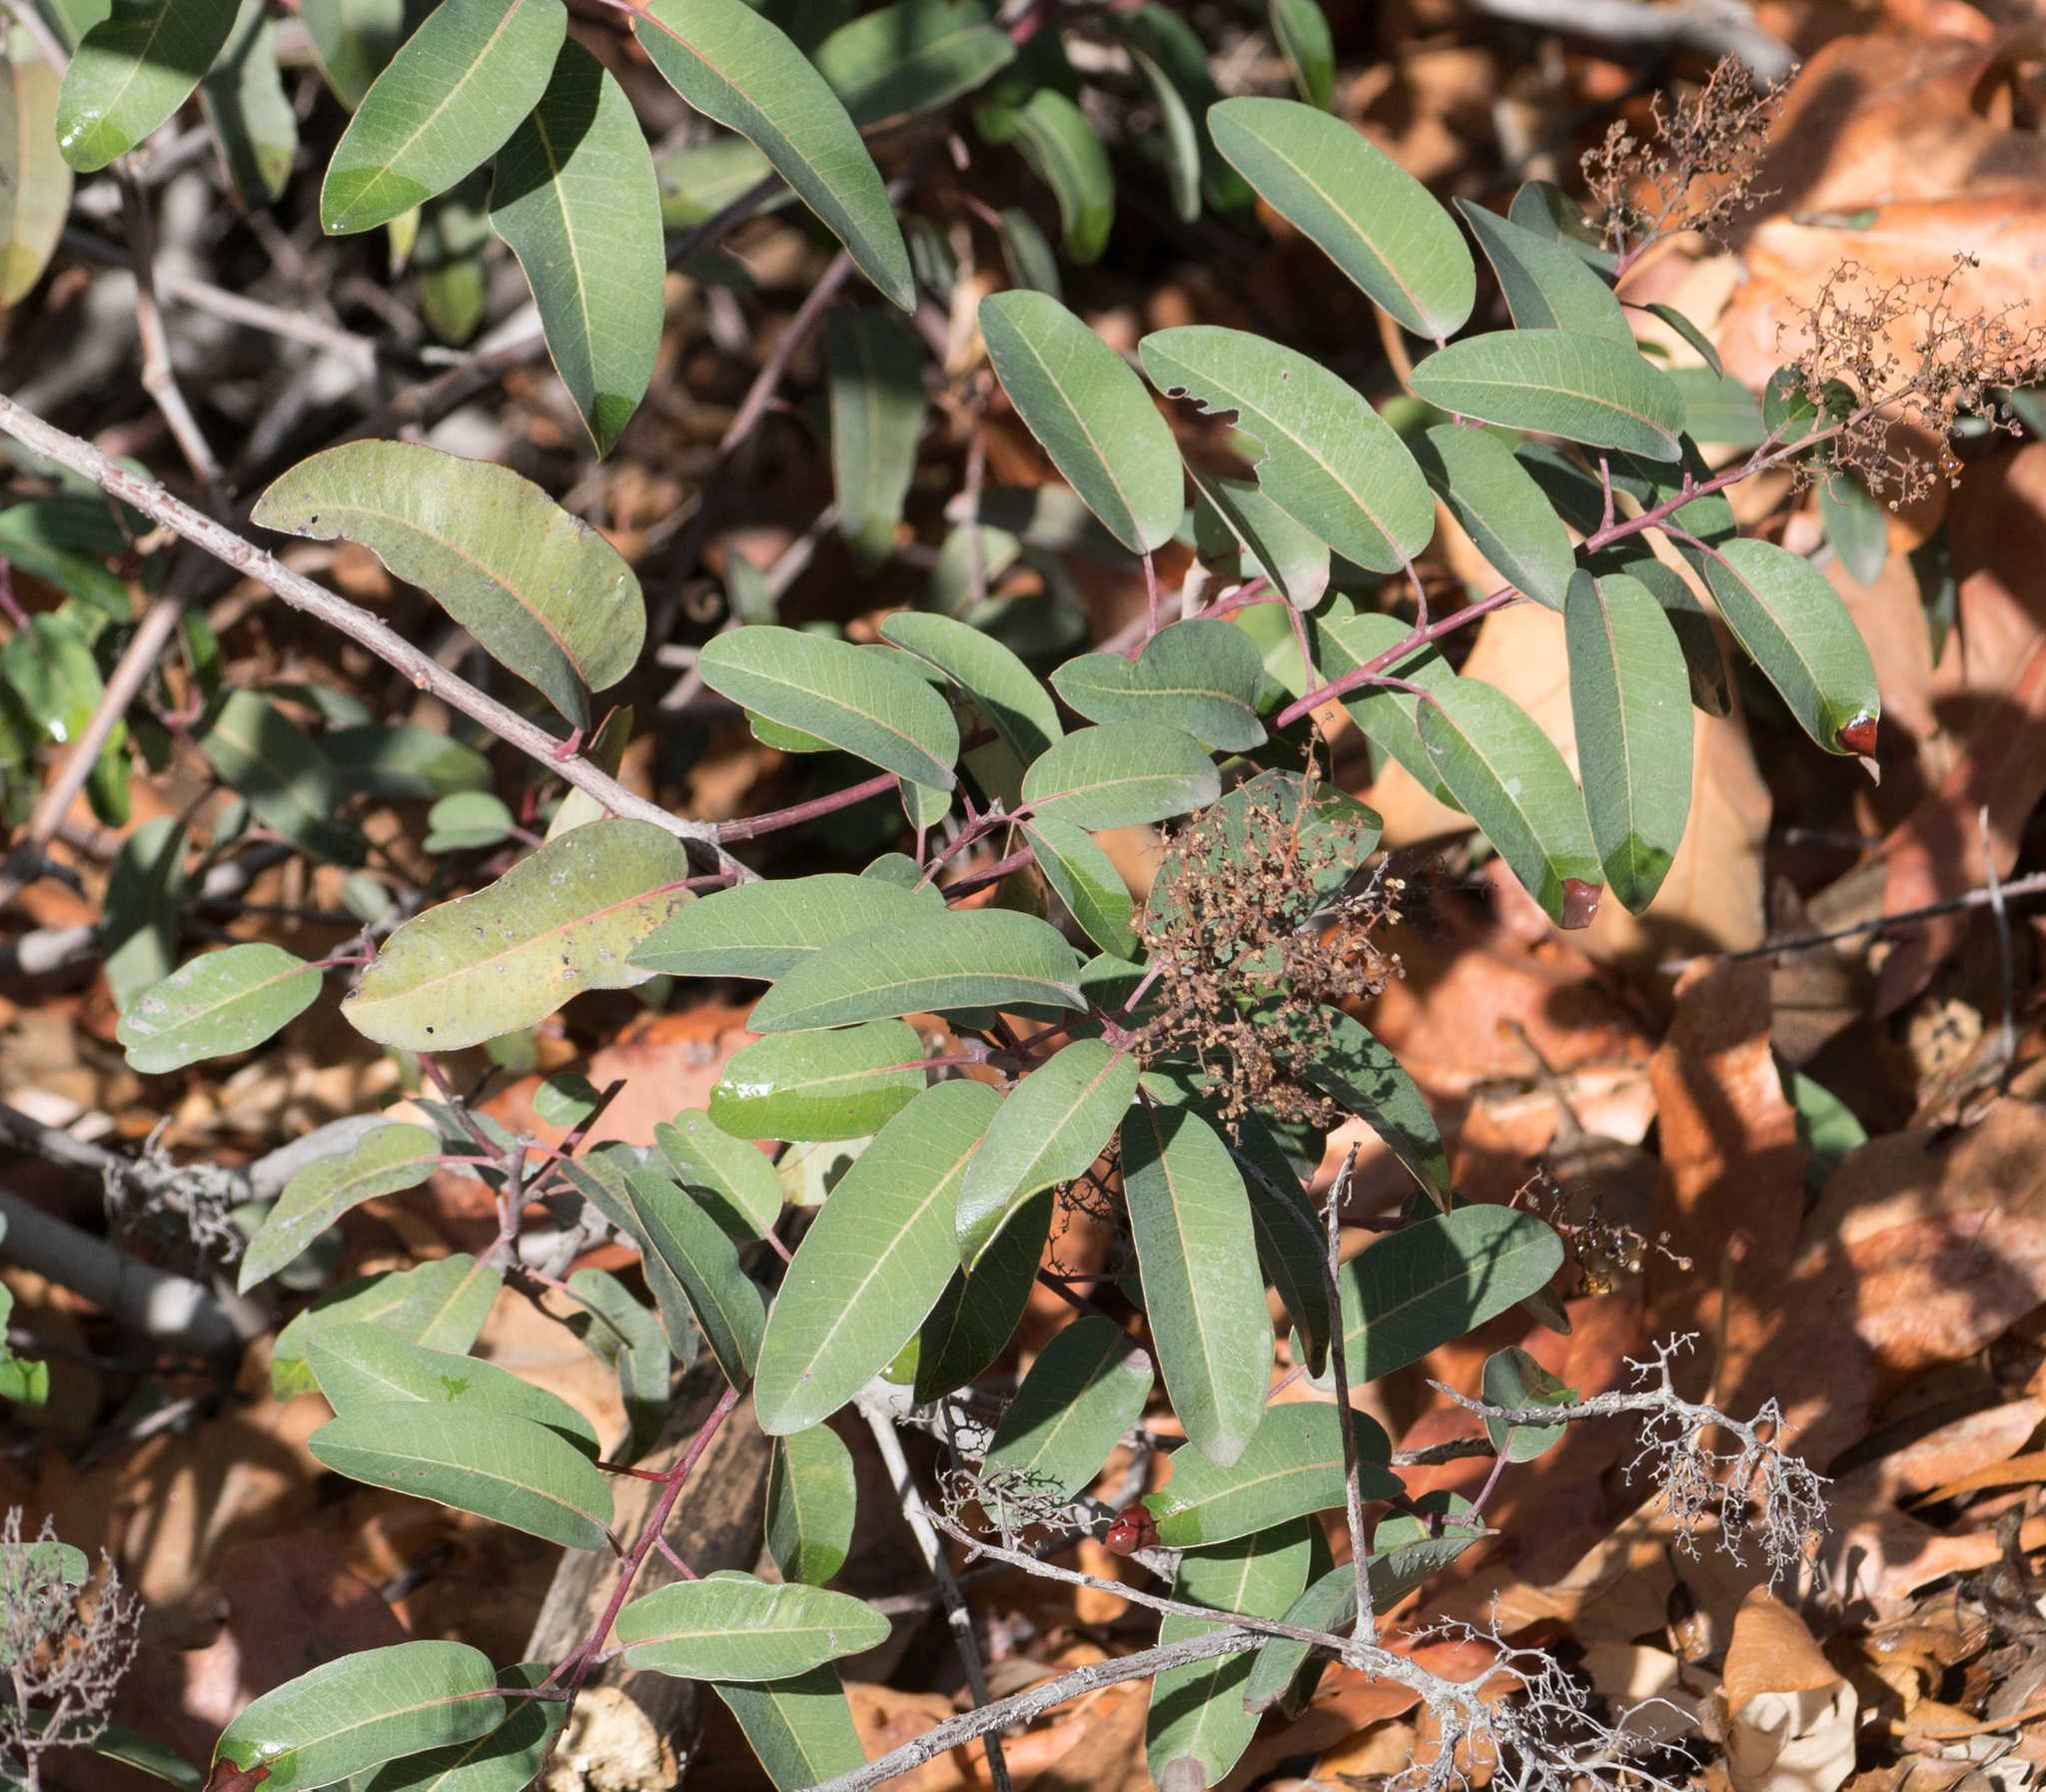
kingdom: Plantae
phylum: Tracheophyta
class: Magnoliopsida
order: Sapindales
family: Anacardiaceae
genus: Malosma
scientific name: Malosma laurina
